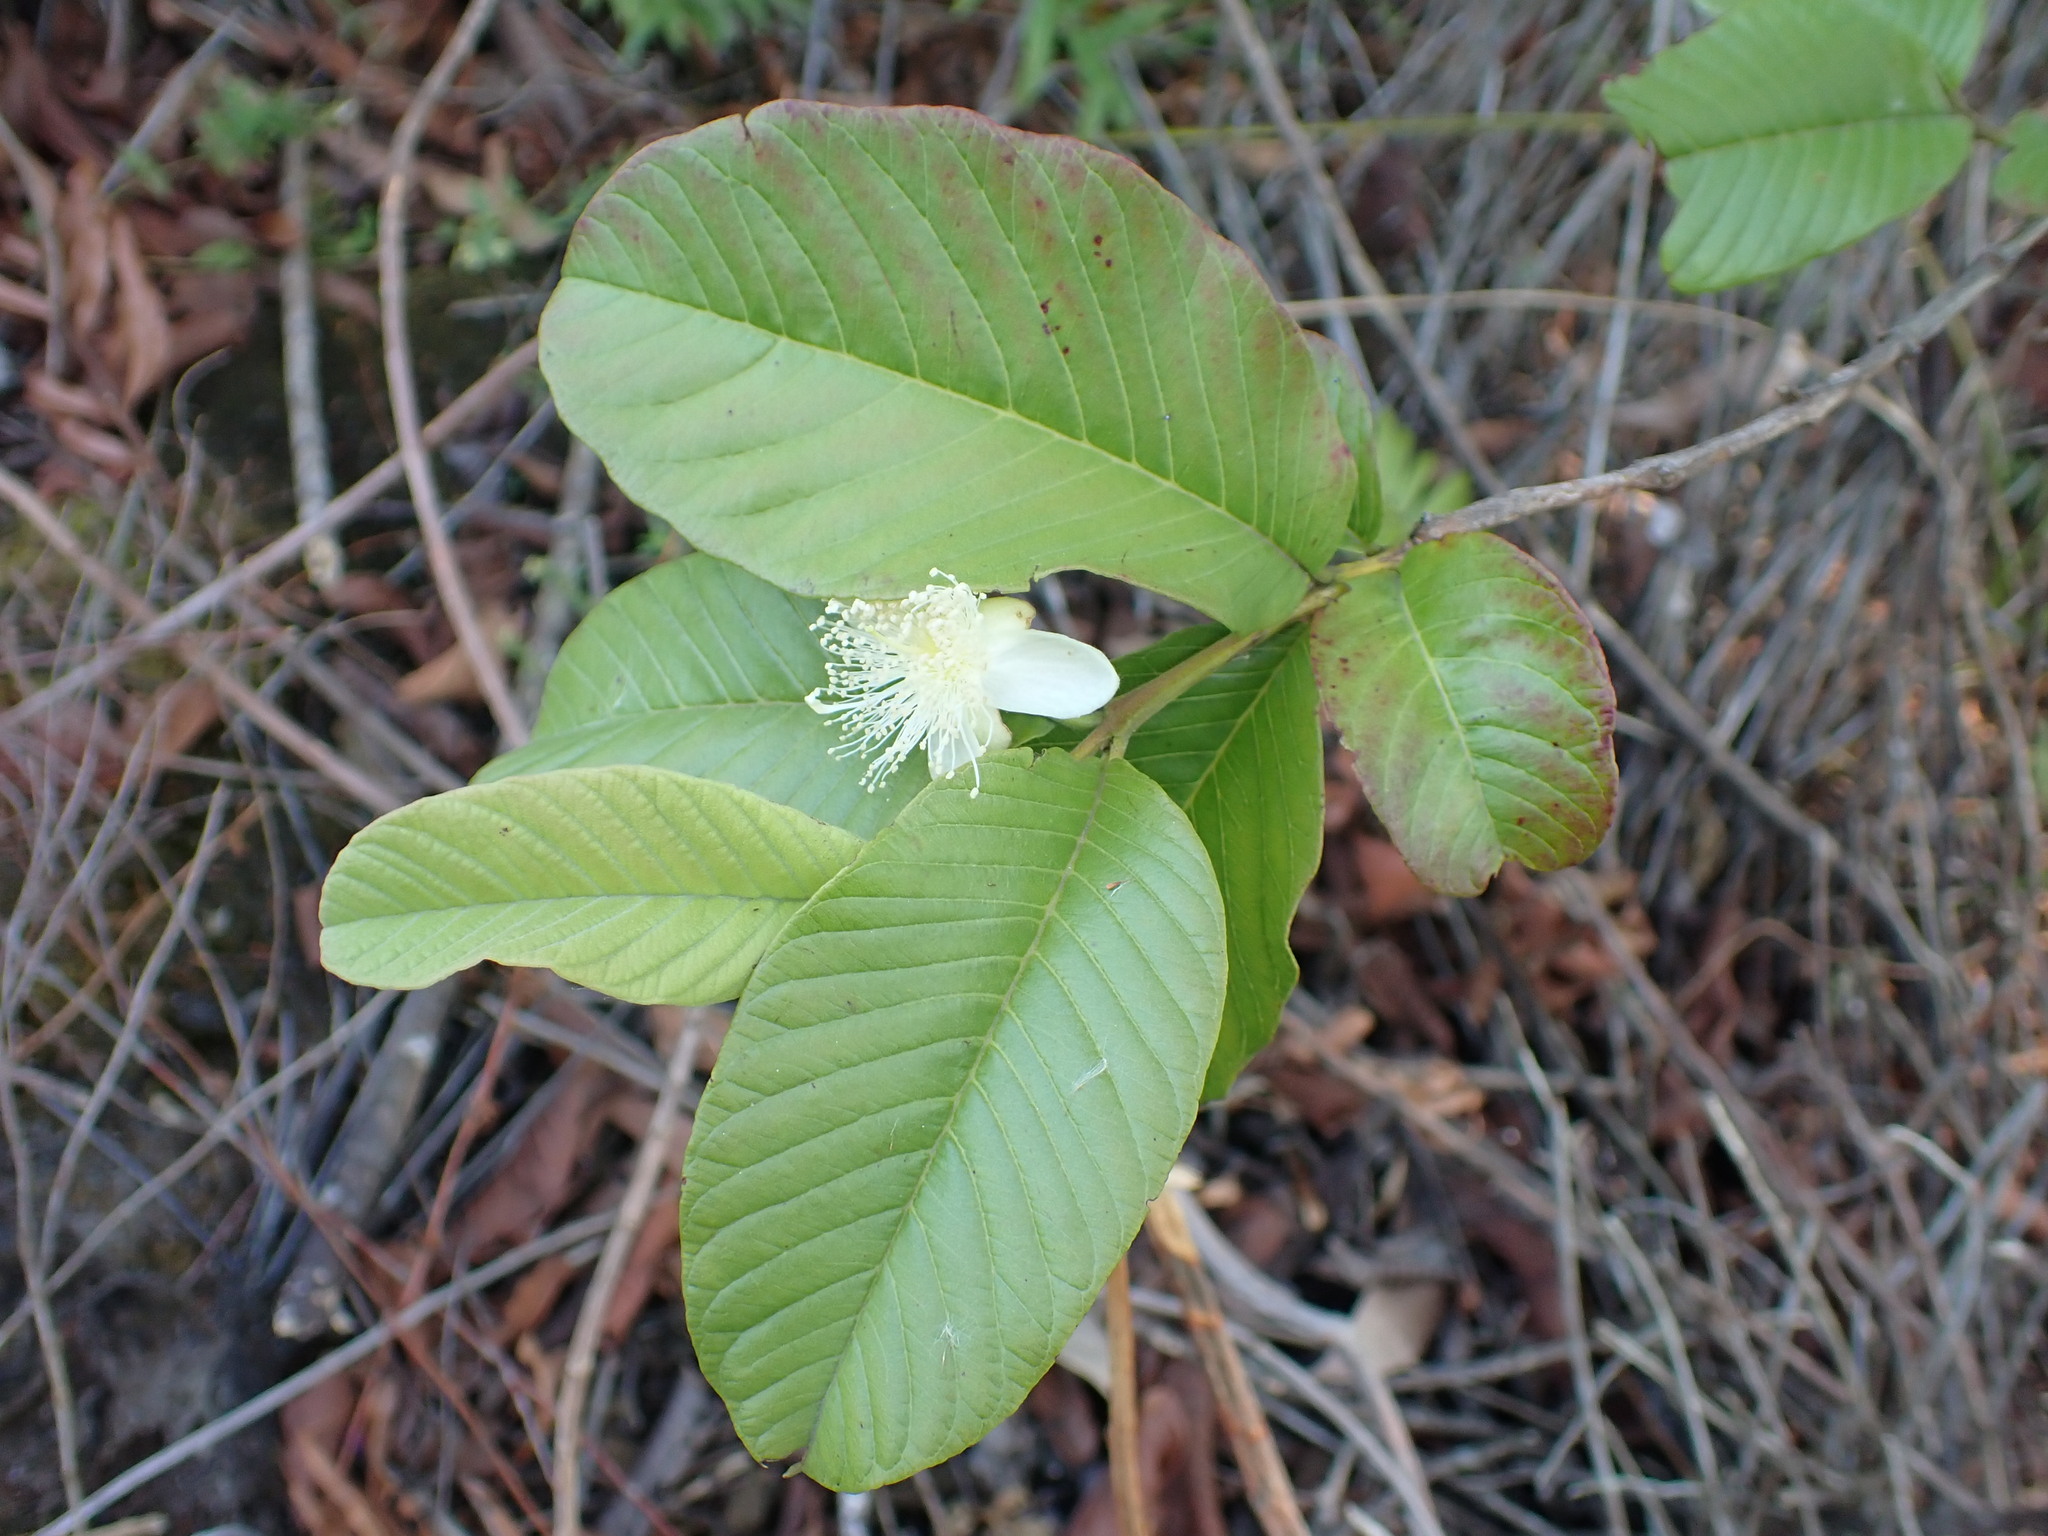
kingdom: Plantae
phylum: Tracheophyta
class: Magnoliopsida
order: Myrtales
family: Myrtaceae
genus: Psidium
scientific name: Psidium guajava
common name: Guava
